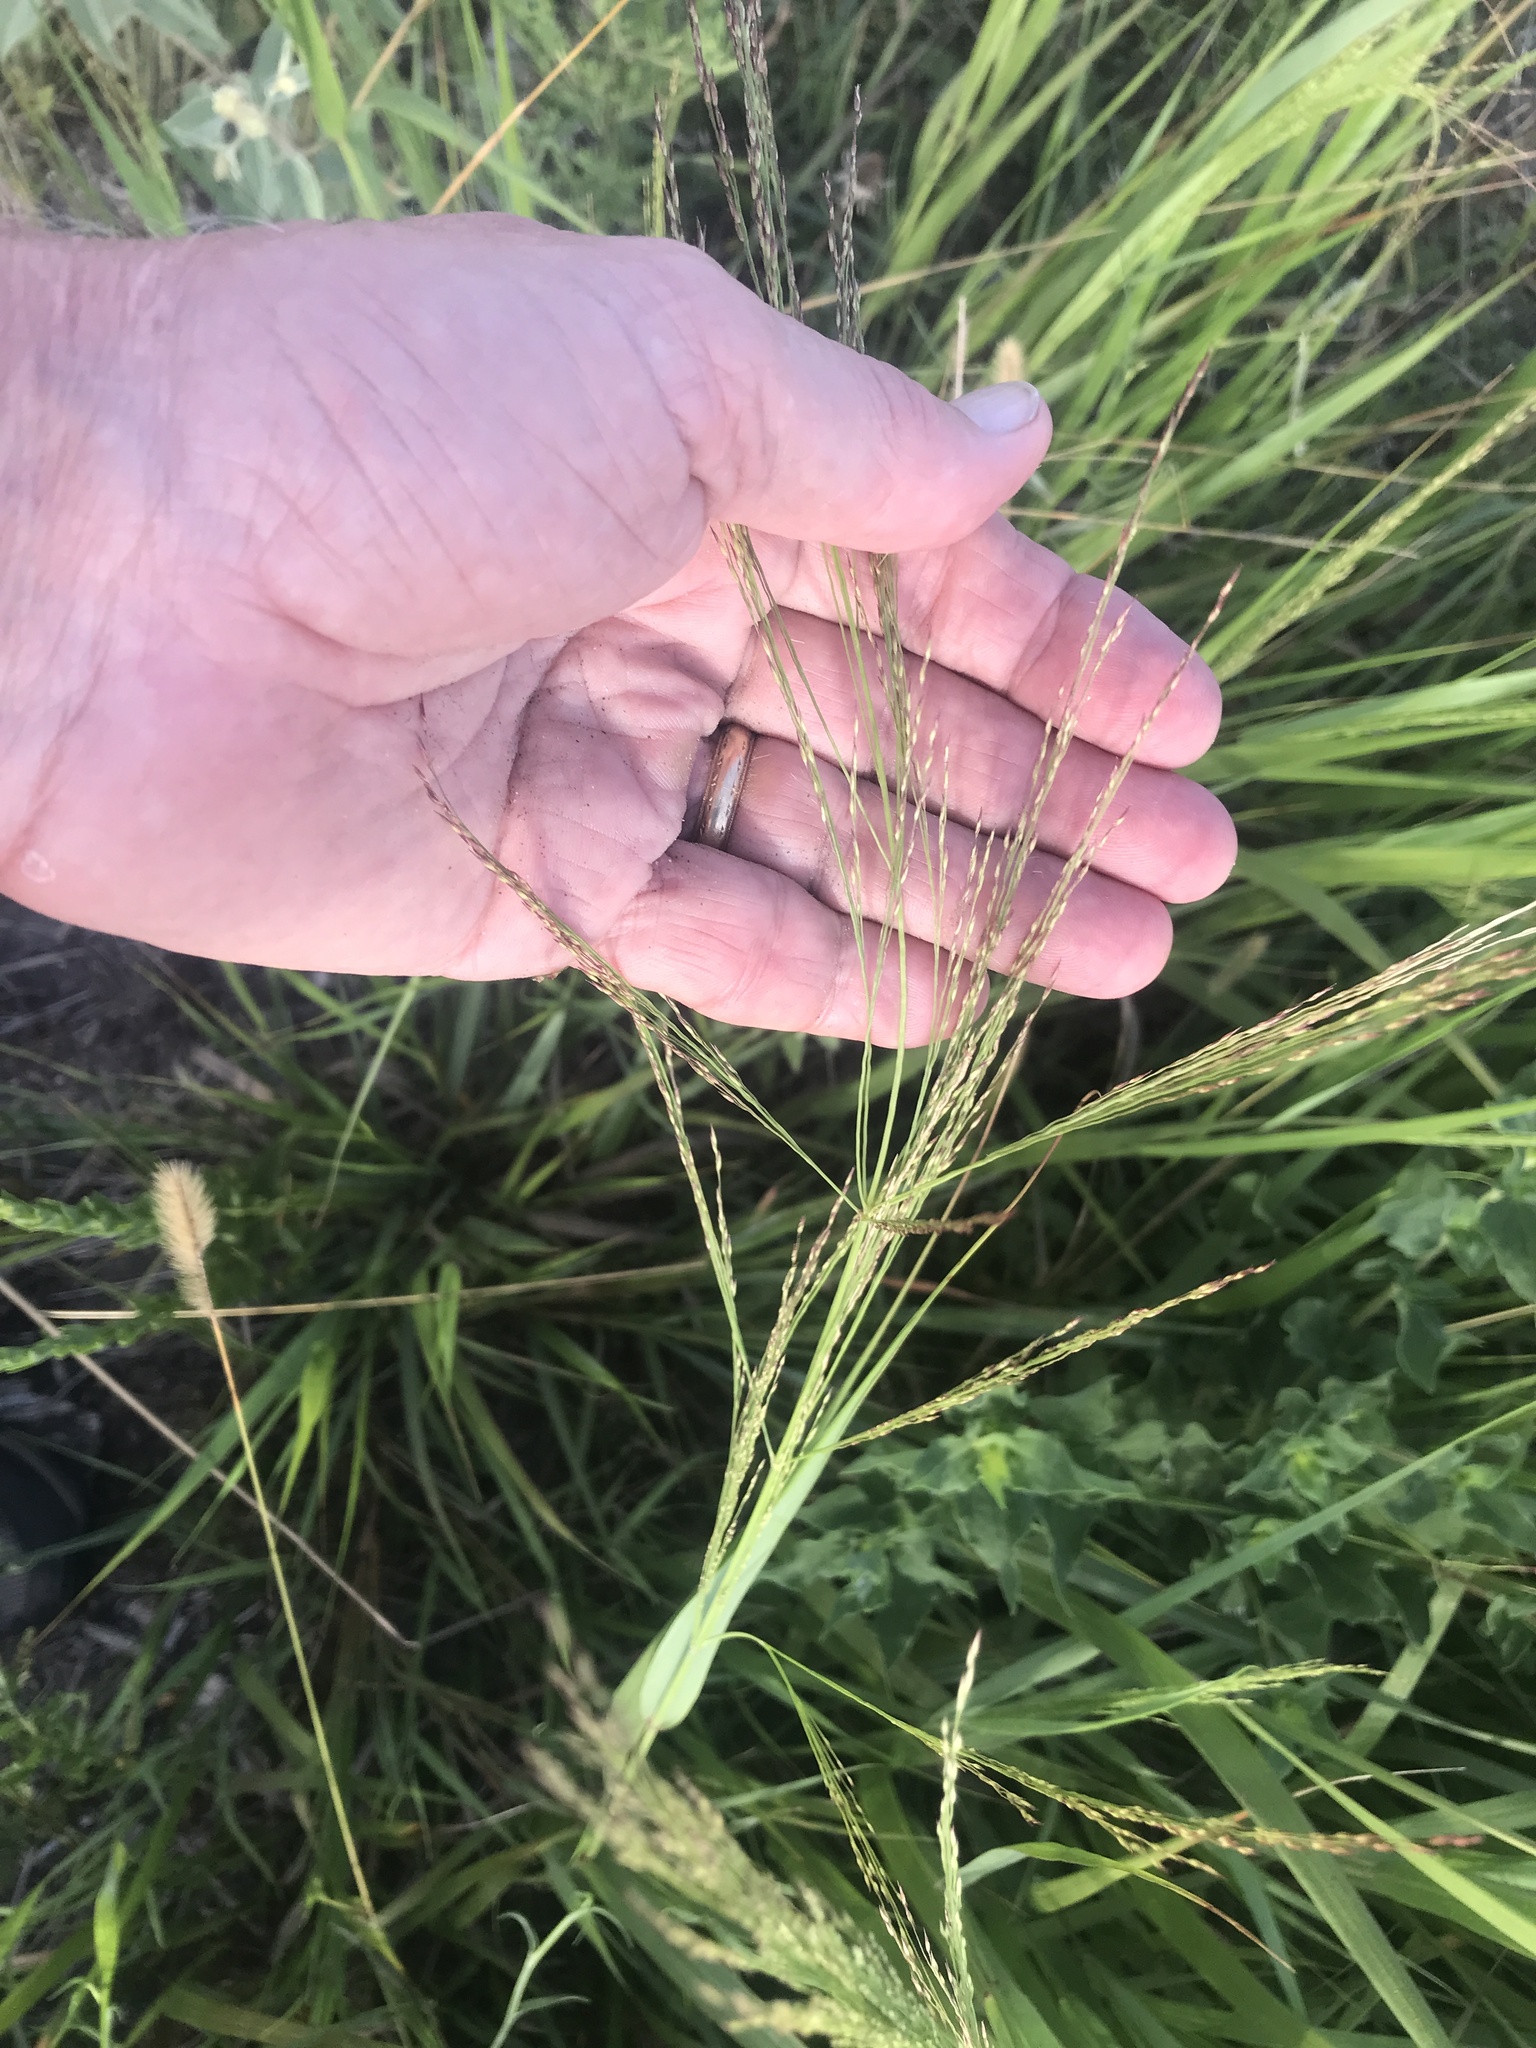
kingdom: Plantae
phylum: Tracheophyta
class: Liliopsida
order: Poales
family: Poaceae
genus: Panicum
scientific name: Panicum virgatum
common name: Switchgrass
